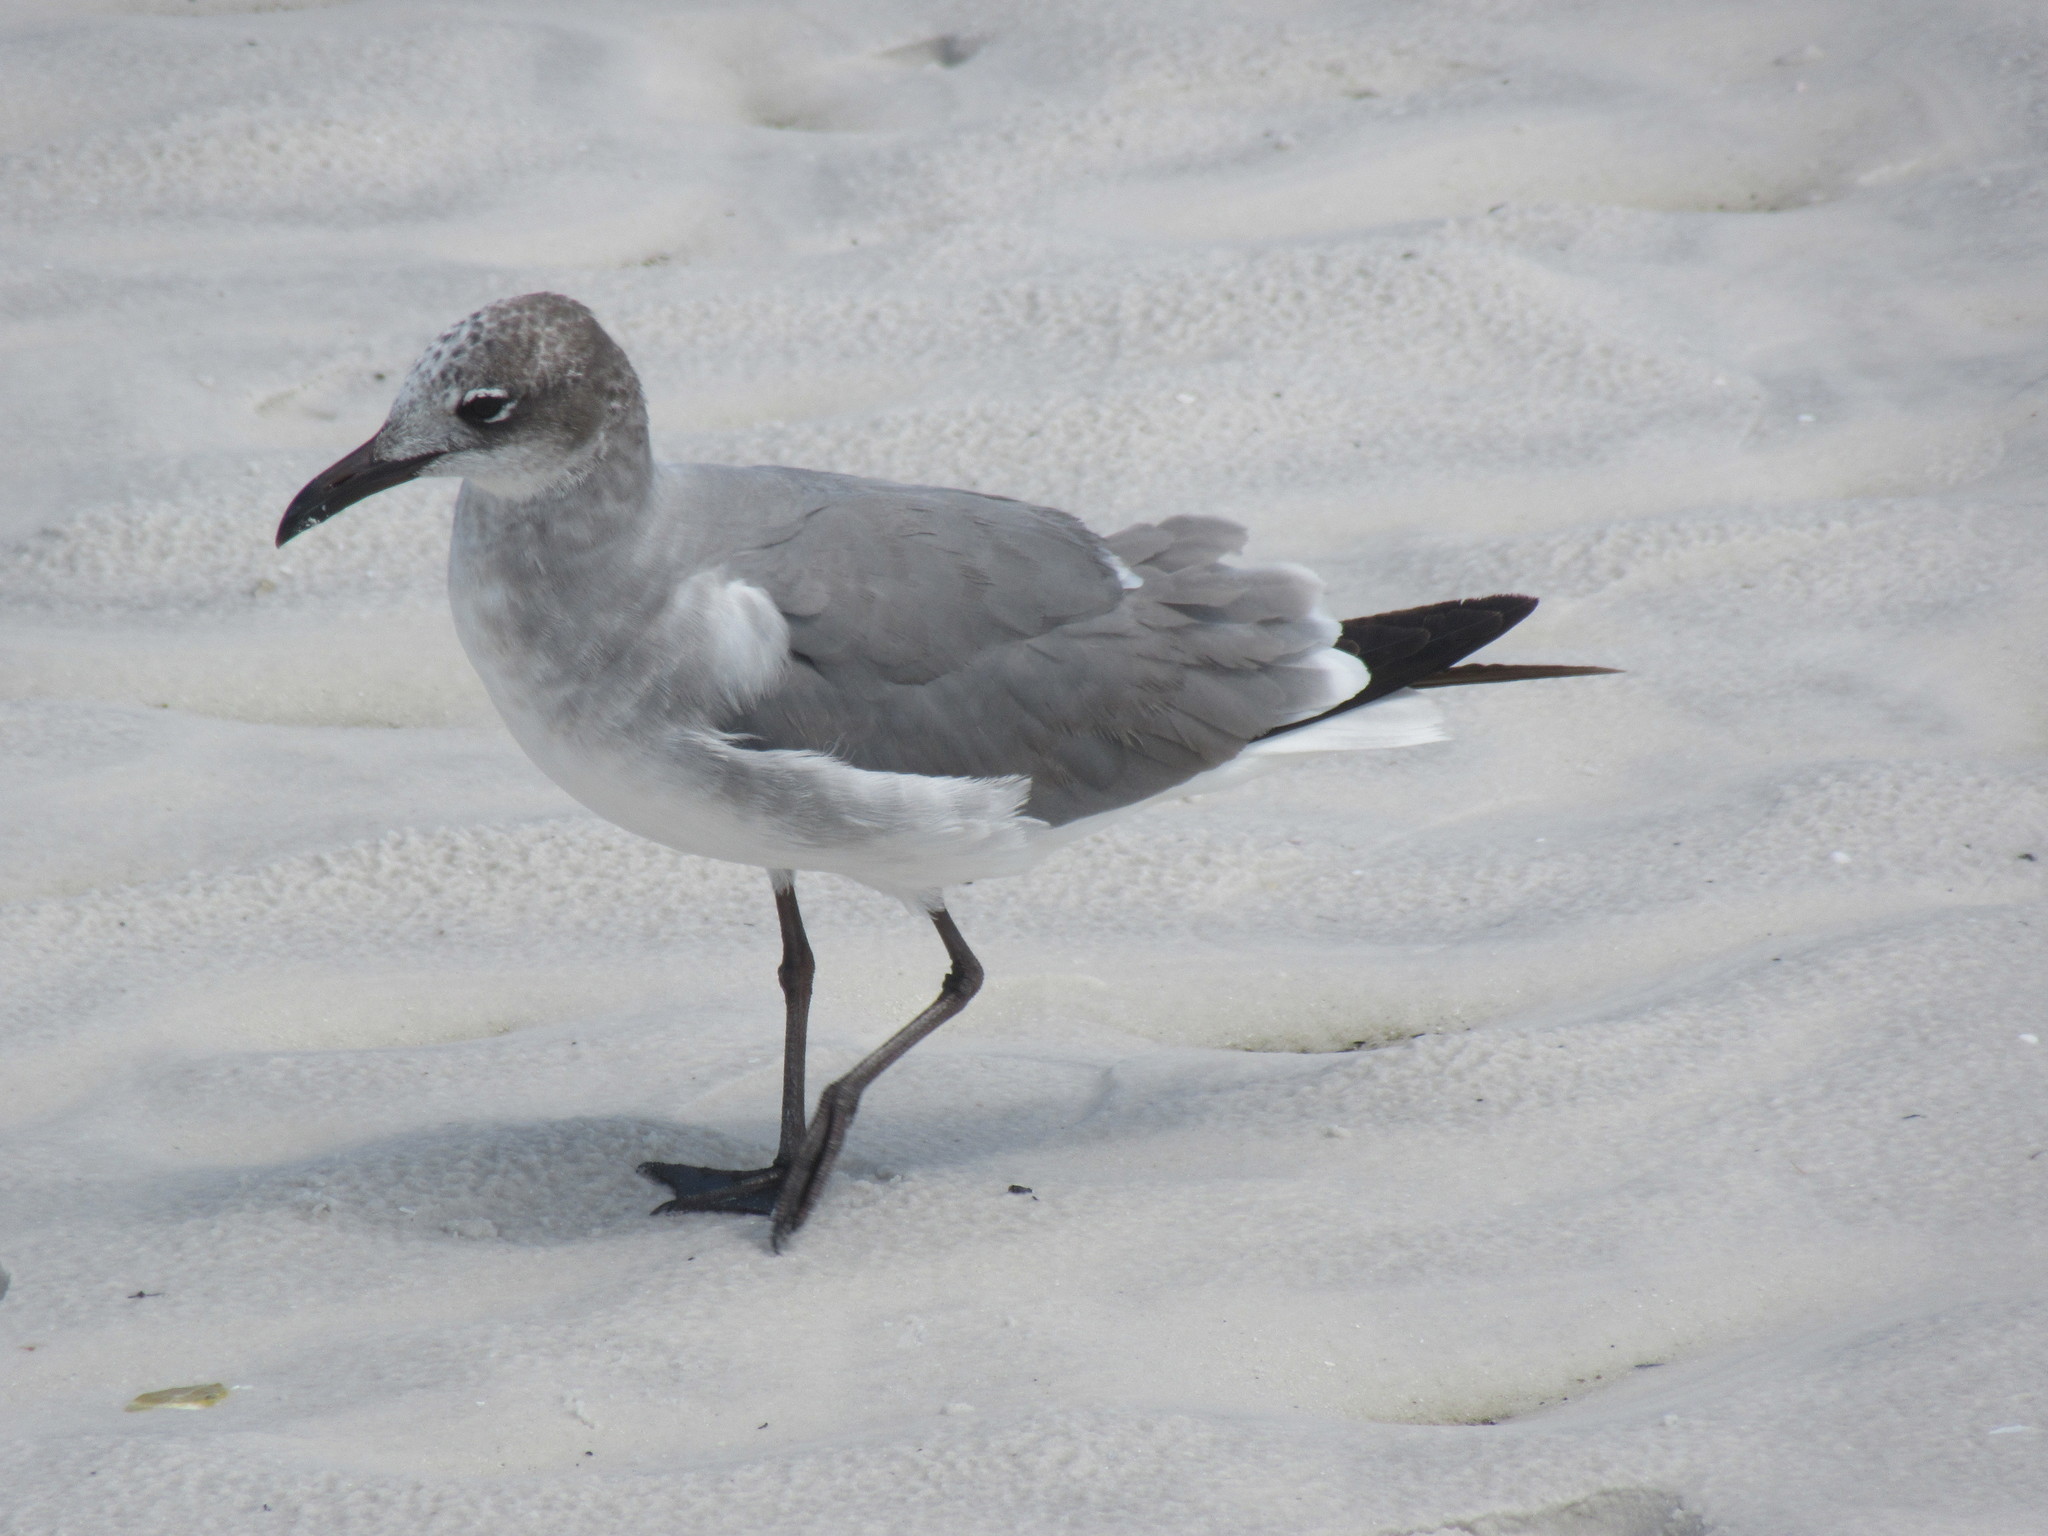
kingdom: Animalia
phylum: Chordata
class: Aves
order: Charadriiformes
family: Laridae
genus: Leucophaeus
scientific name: Leucophaeus atricilla
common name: Laughing gull
